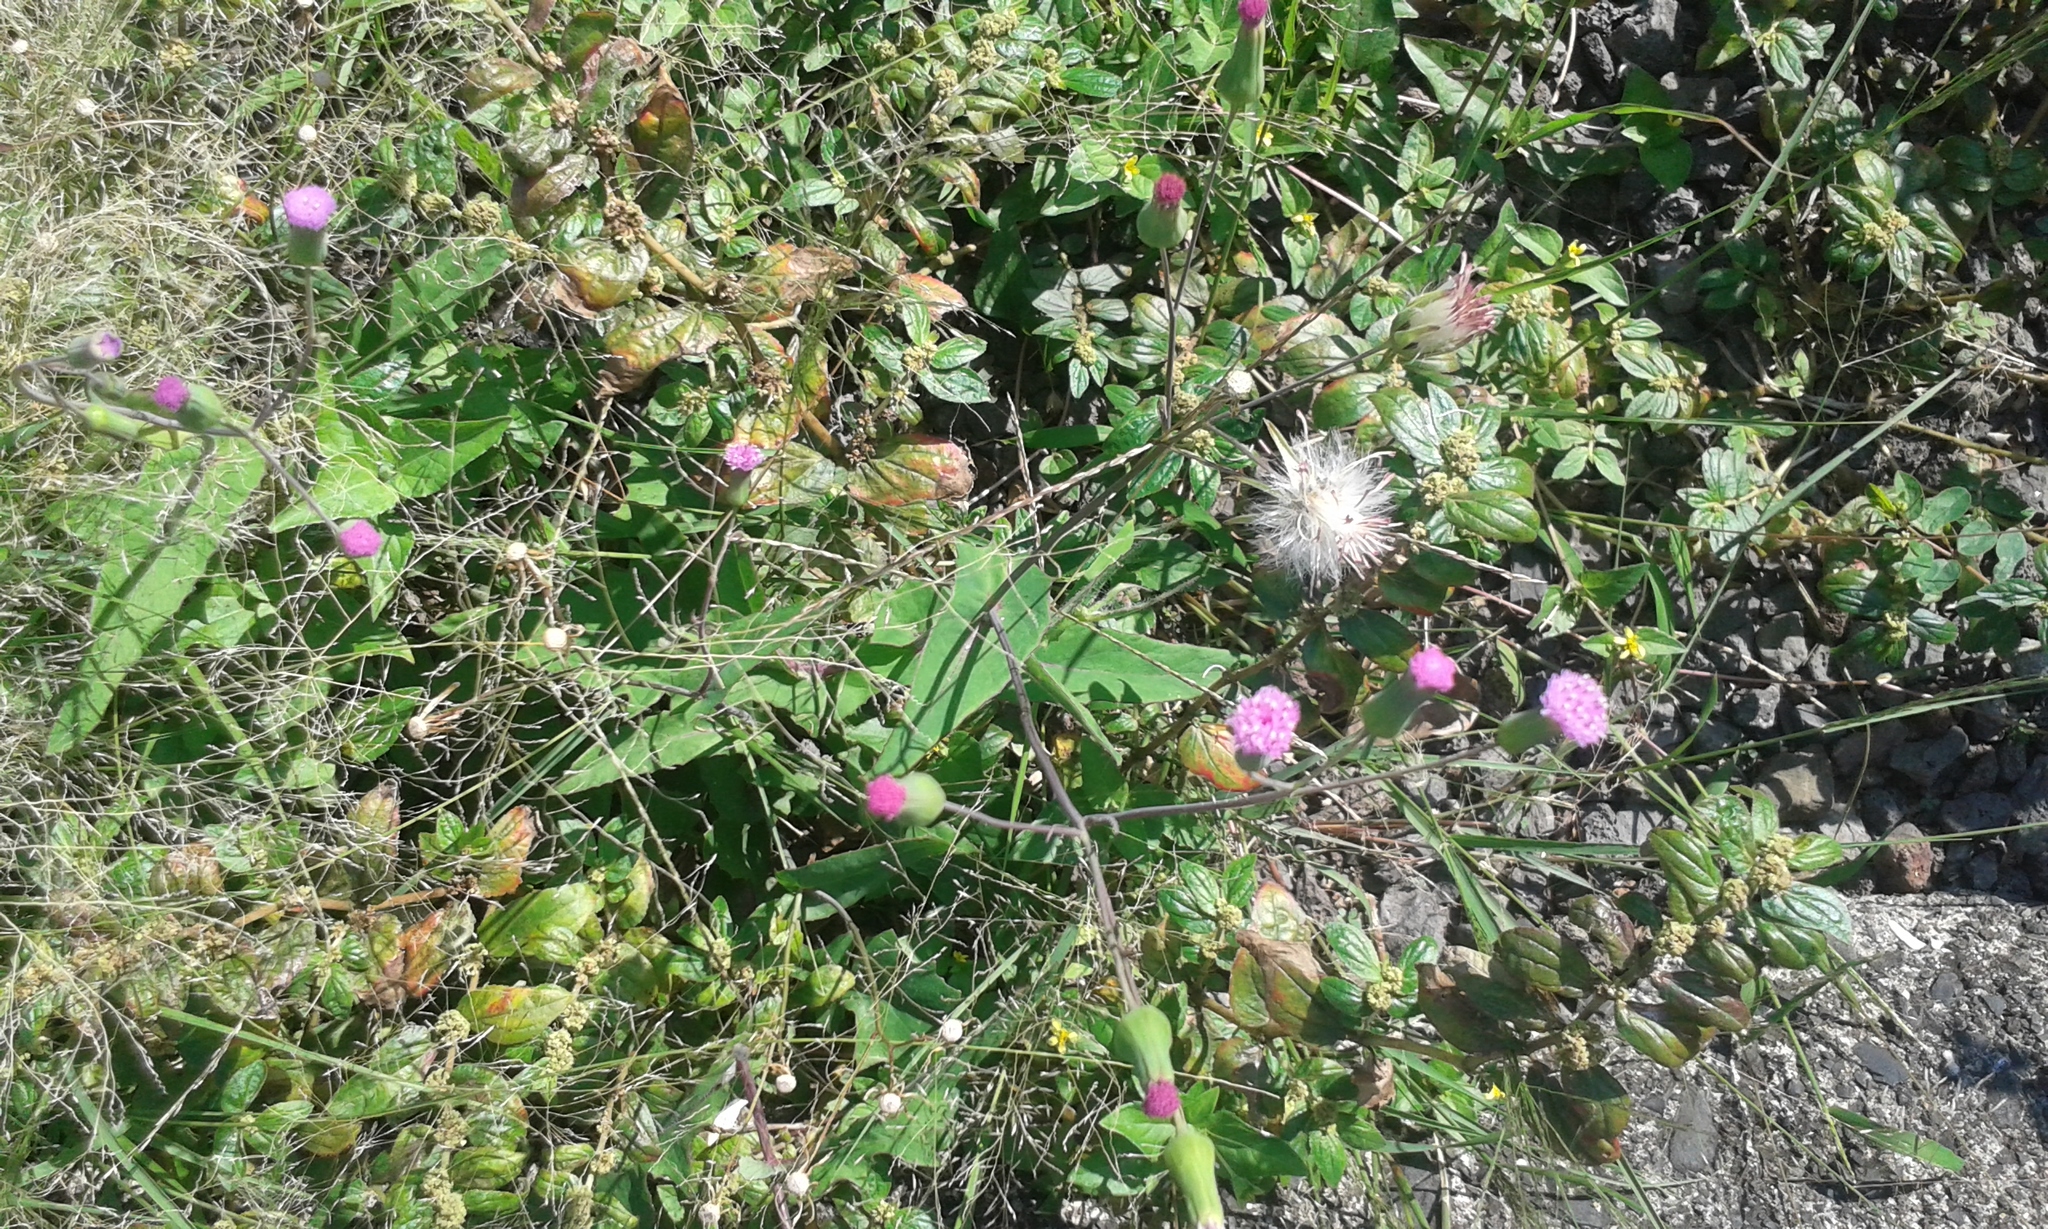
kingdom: Plantae
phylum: Tracheophyta
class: Magnoliopsida
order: Asterales
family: Asteraceae
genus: Emilia
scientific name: Emilia sonchifolia
